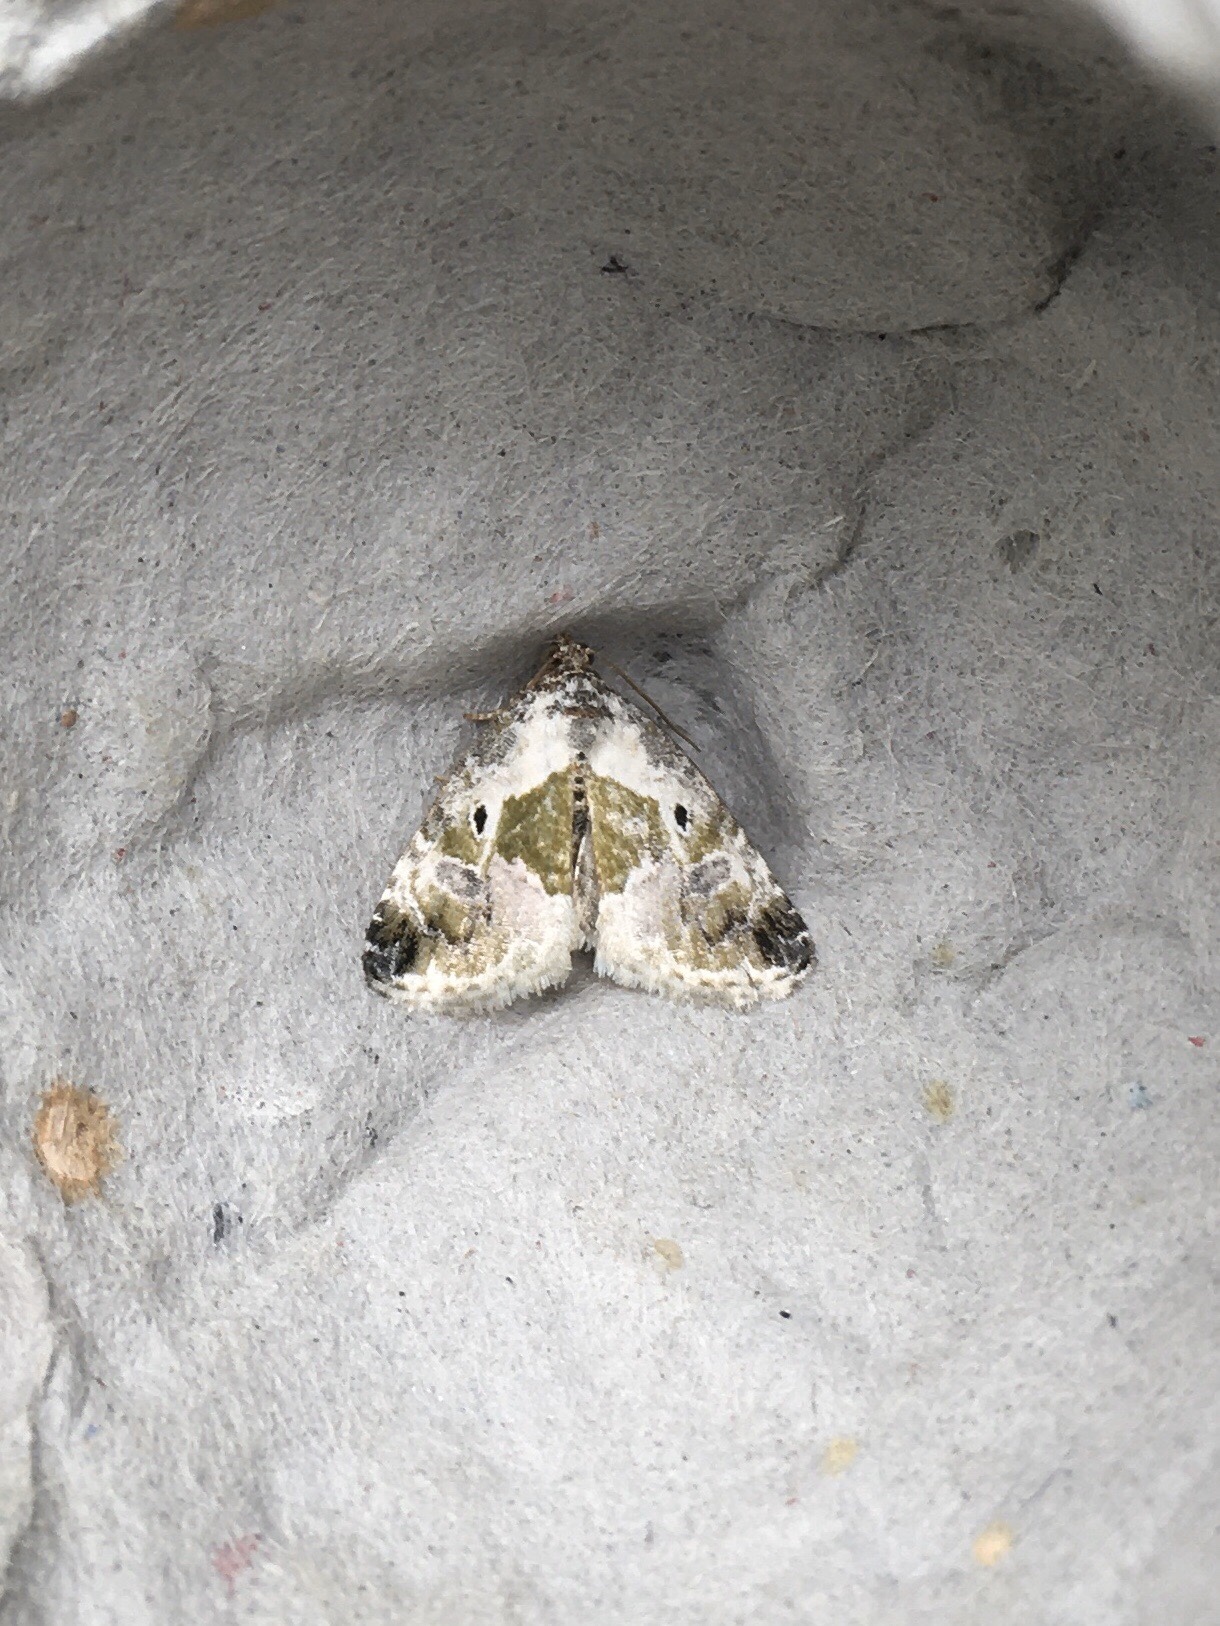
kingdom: Animalia
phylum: Arthropoda
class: Insecta
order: Lepidoptera
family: Noctuidae
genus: Maliattha
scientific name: Maliattha synochitis
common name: Black-dotted glyph
